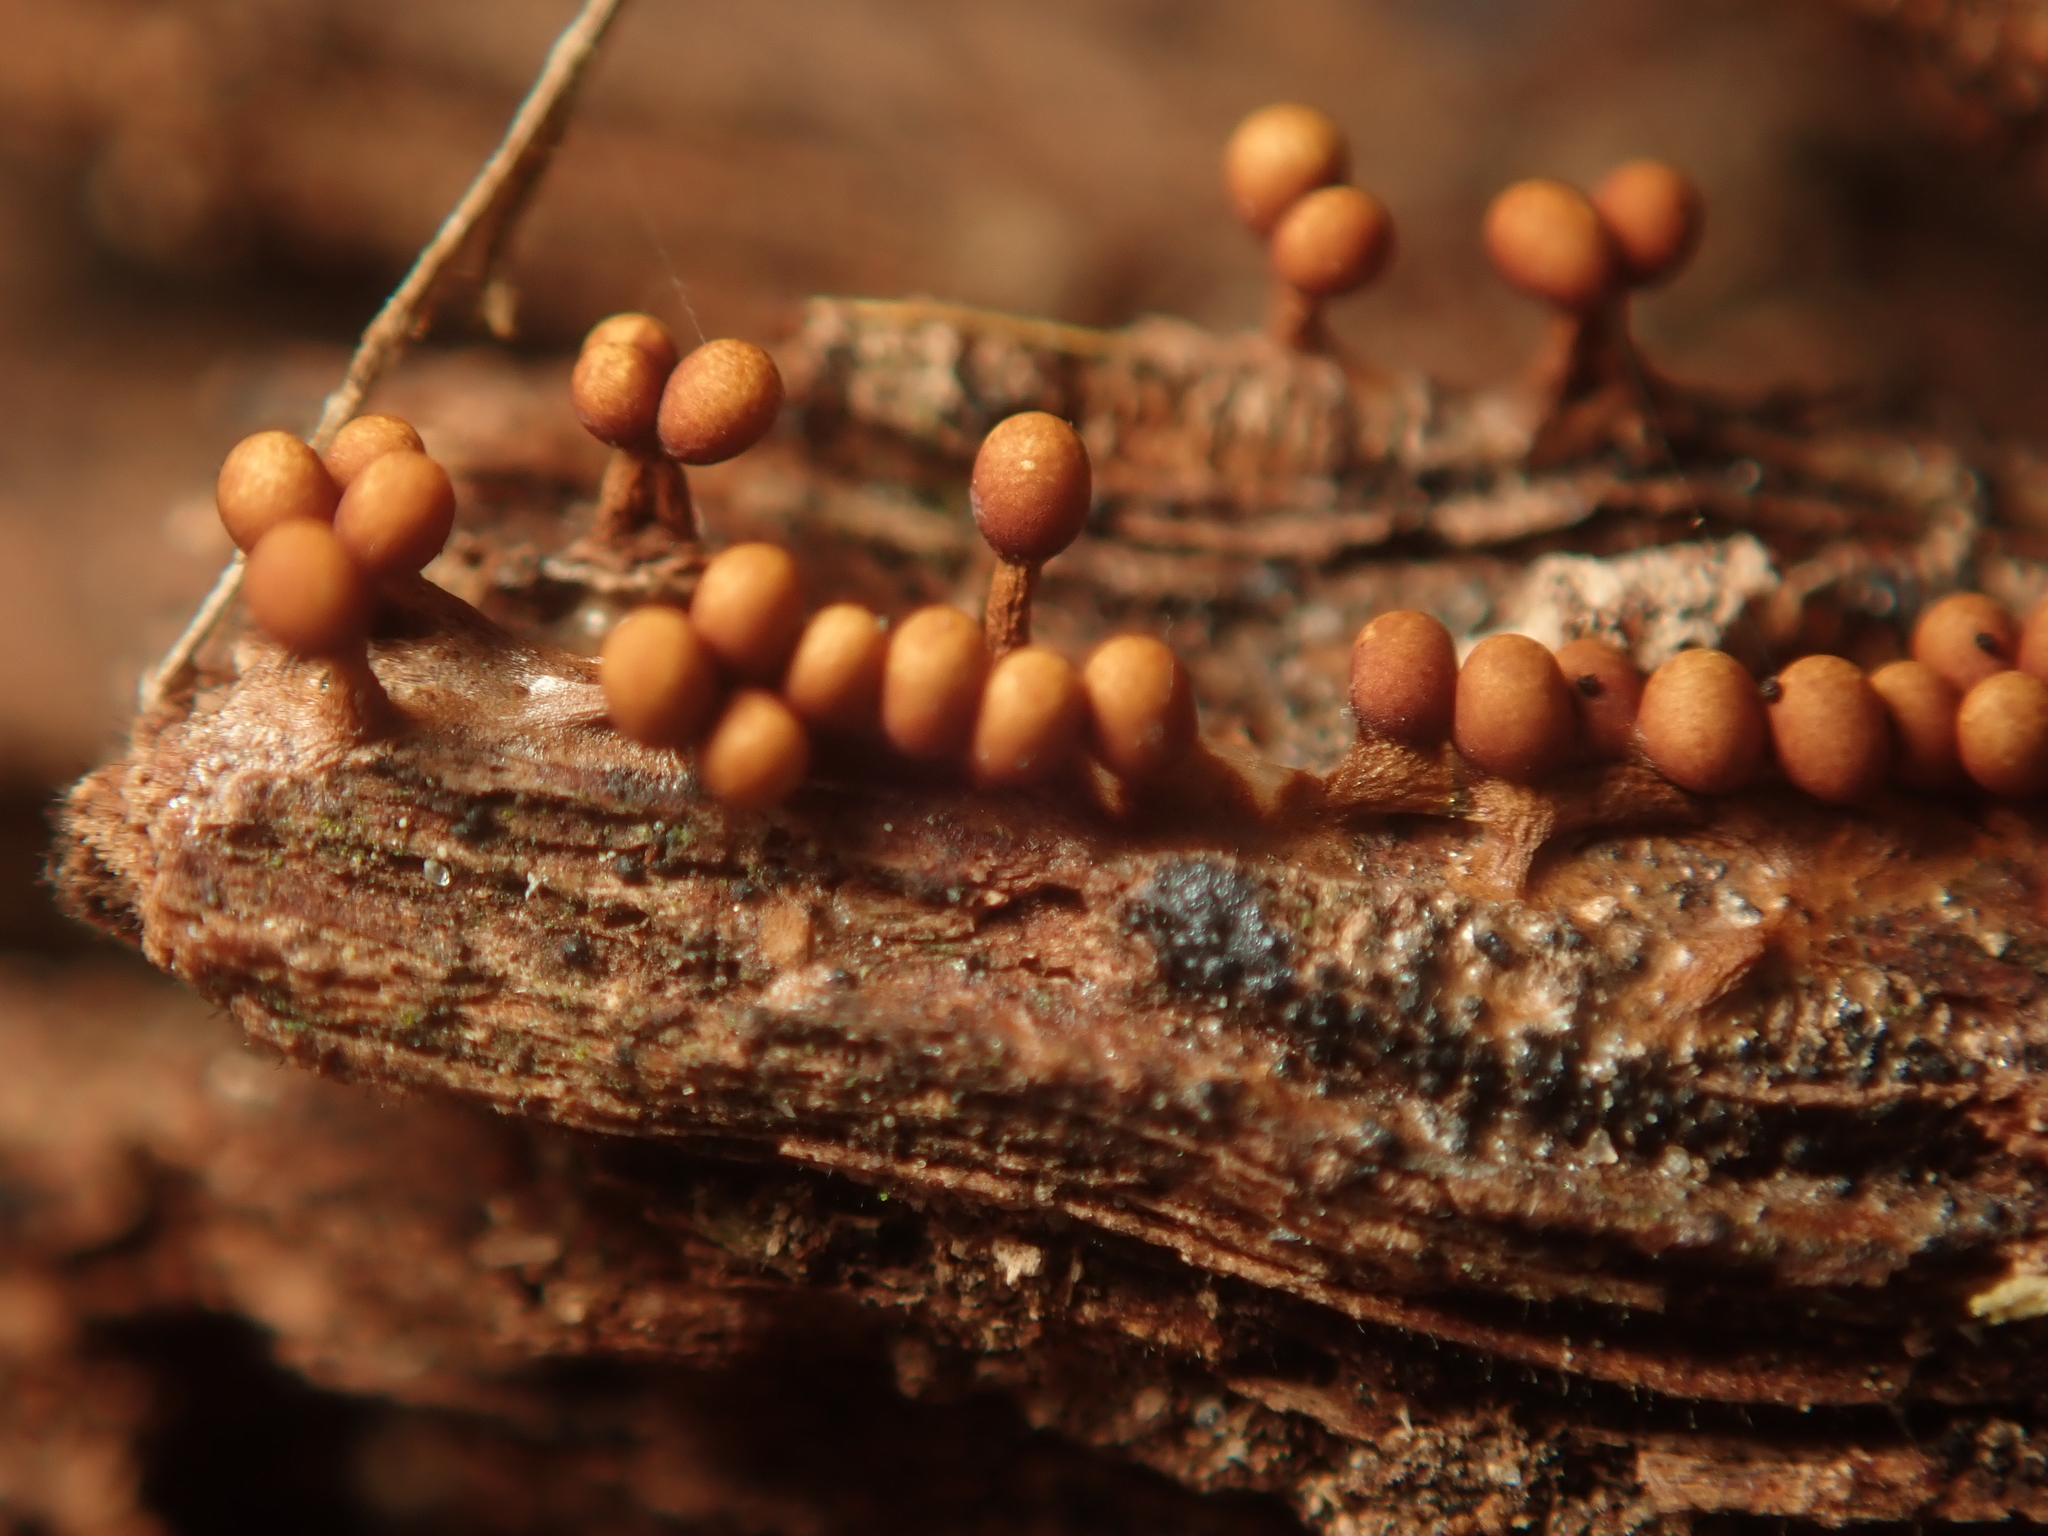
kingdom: Protozoa
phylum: Mycetozoa
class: Myxomycetes
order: Trichiales
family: Trichiaceae
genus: Trichia
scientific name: Trichia ambigua
